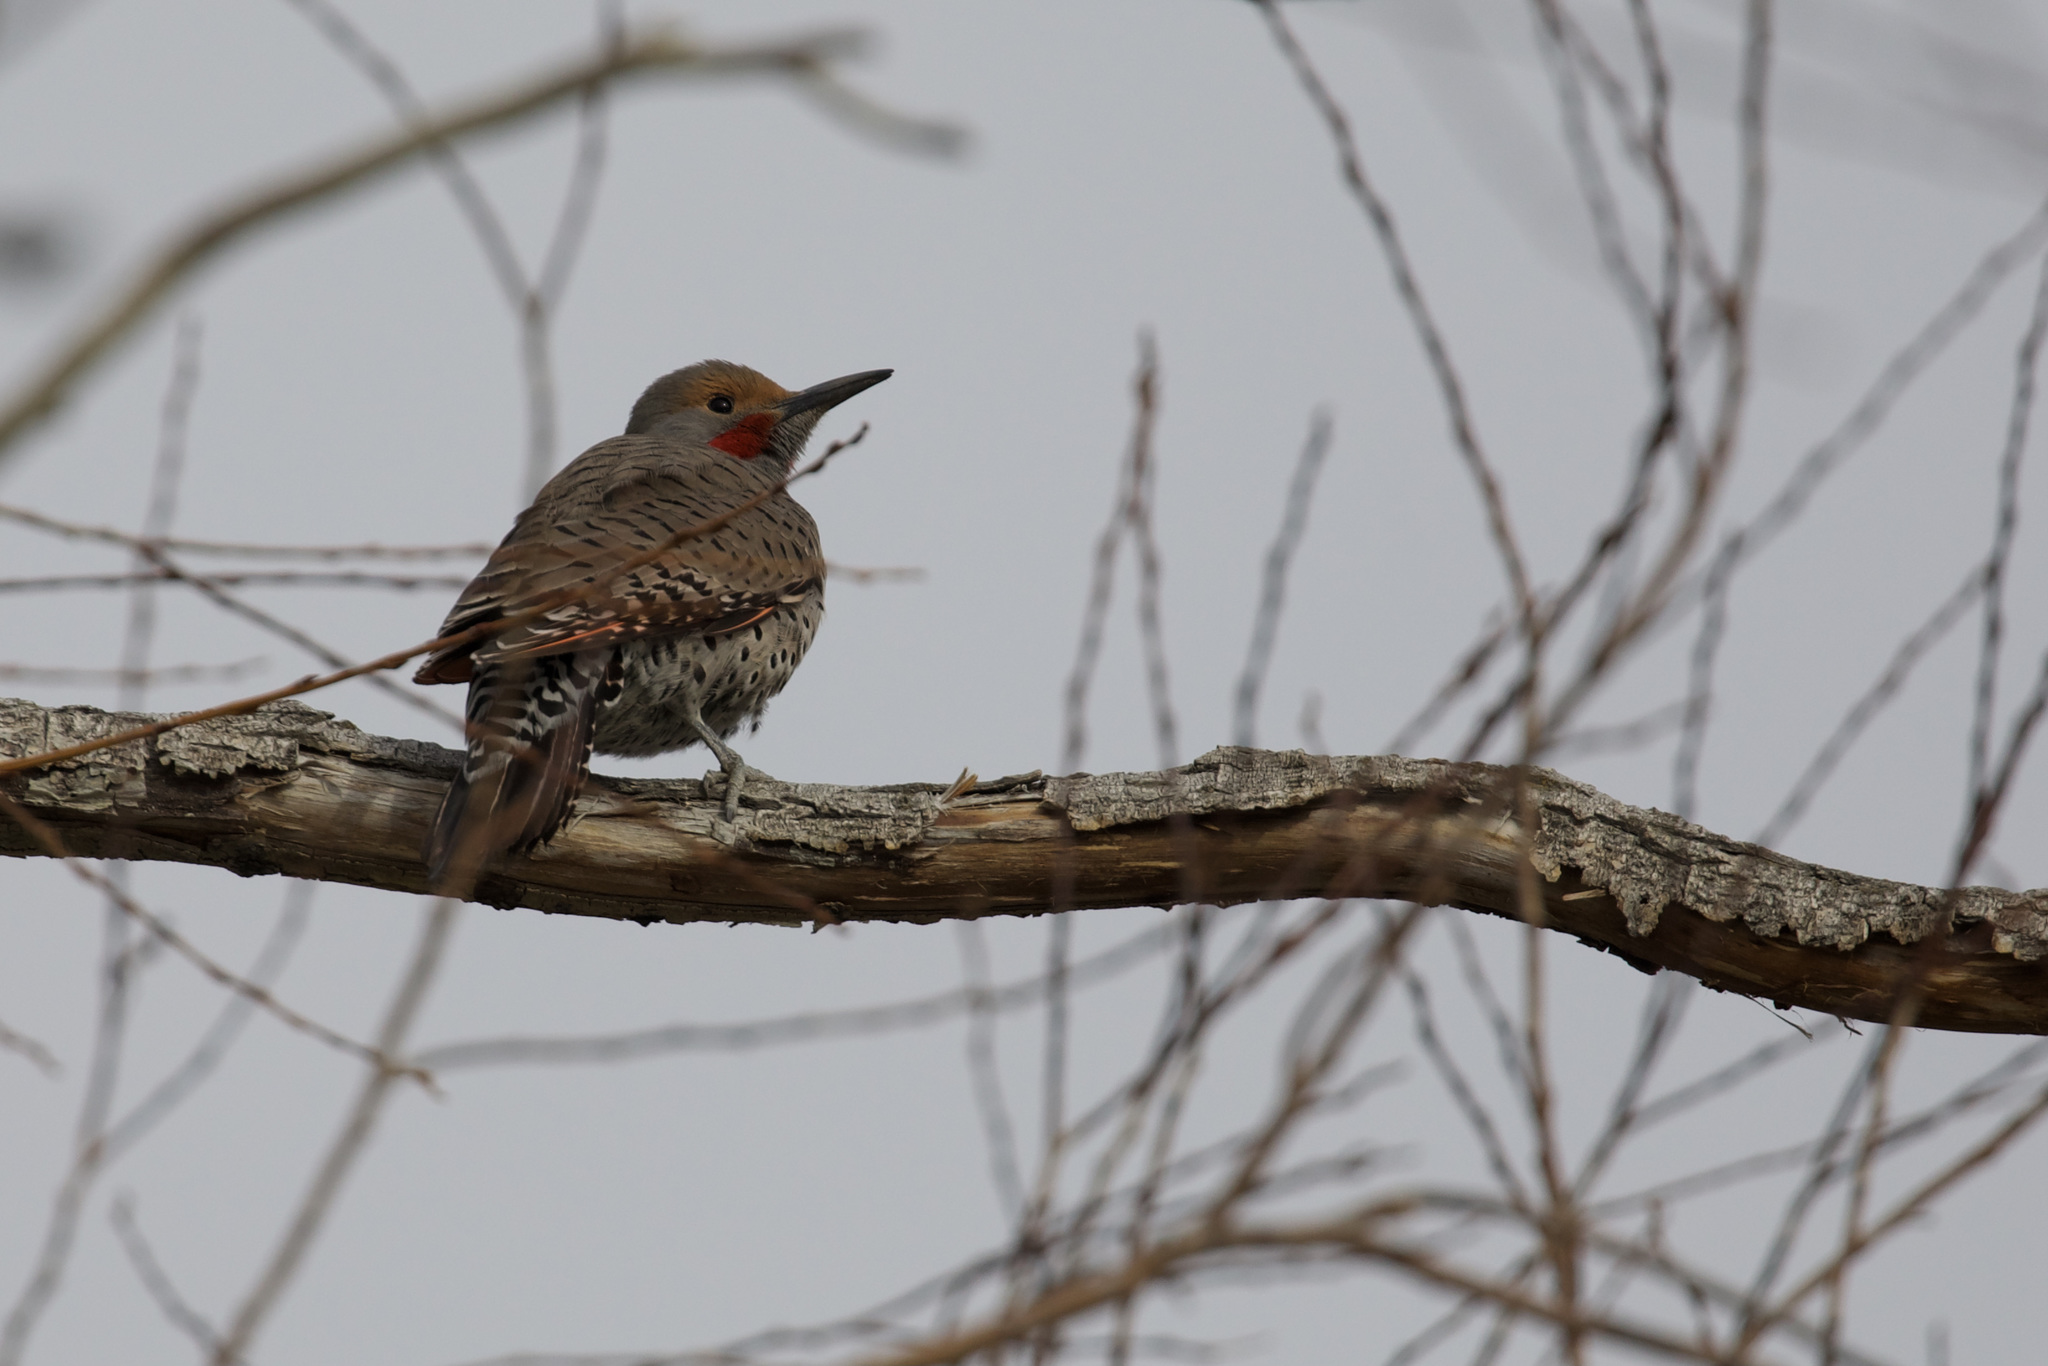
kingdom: Animalia
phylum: Chordata
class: Aves
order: Piciformes
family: Picidae
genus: Colaptes
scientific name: Colaptes auratus
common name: Northern flicker
